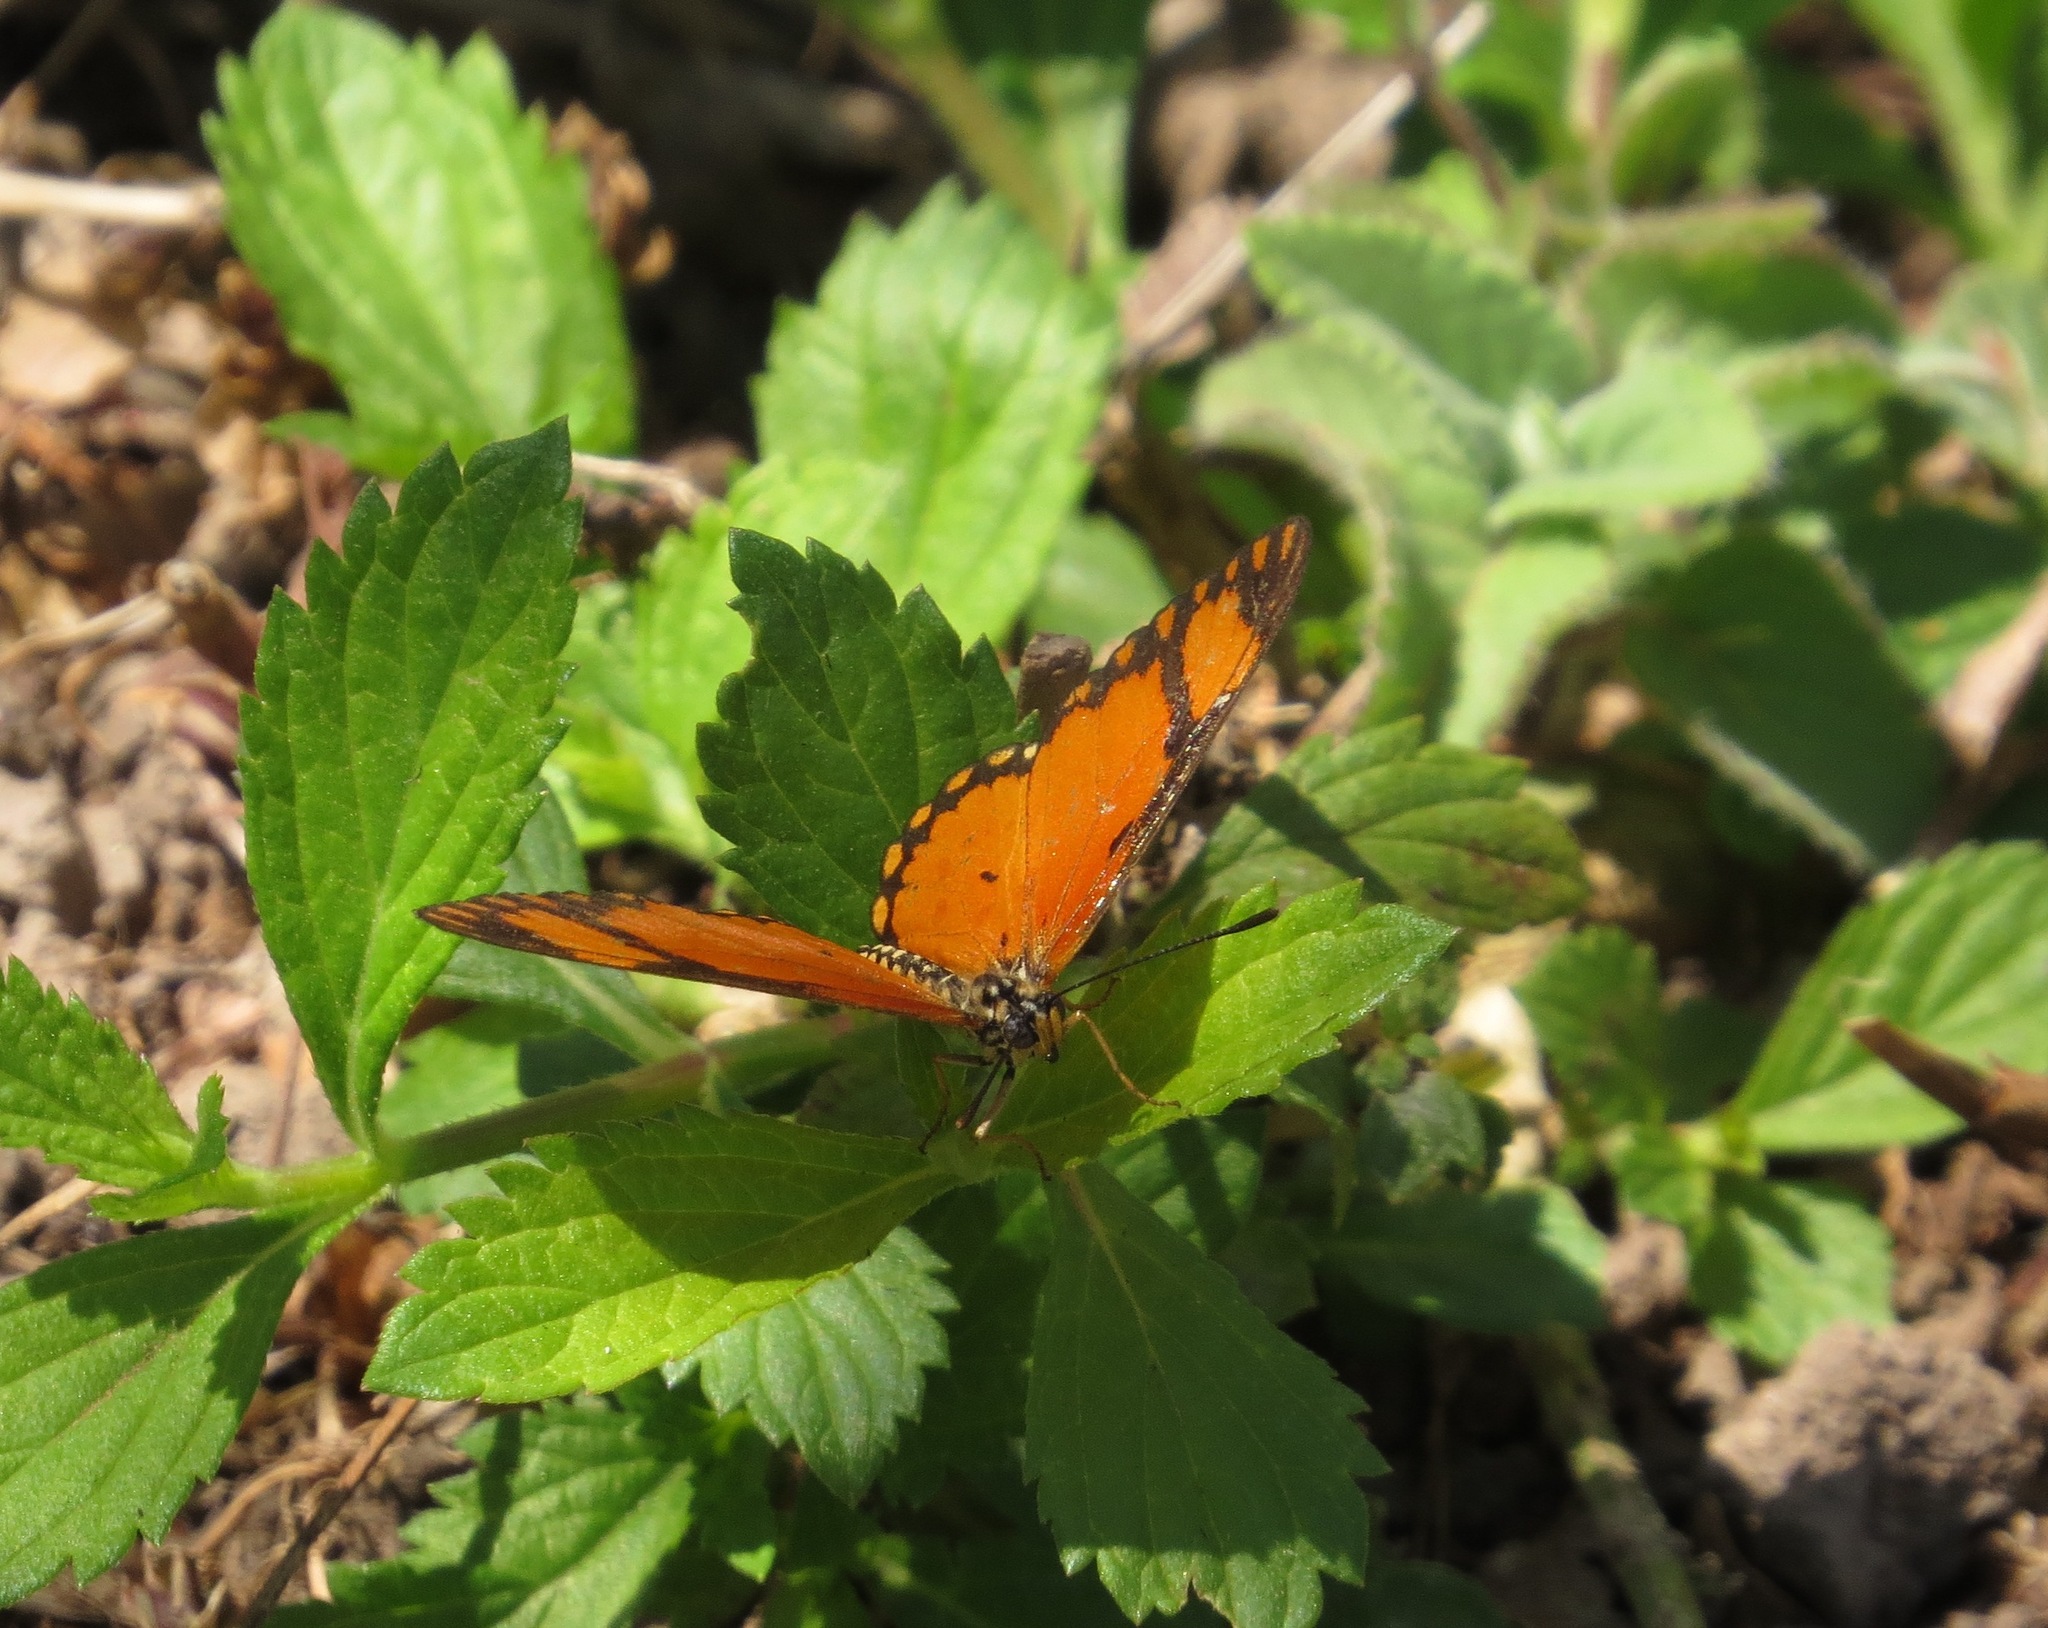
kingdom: Animalia
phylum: Arthropoda
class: Insecta
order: Lepidoptera
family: Nymphalidae
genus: Acraea
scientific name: Acraea Telchinia serena
